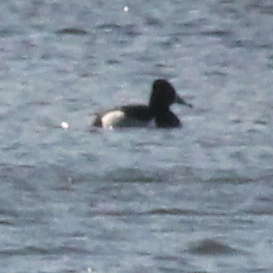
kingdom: Animalia
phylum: Chordata
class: Aves
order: Anseriformes
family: Anatidae
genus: Aythya
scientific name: Aythya collaris
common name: Ring-necked duck
